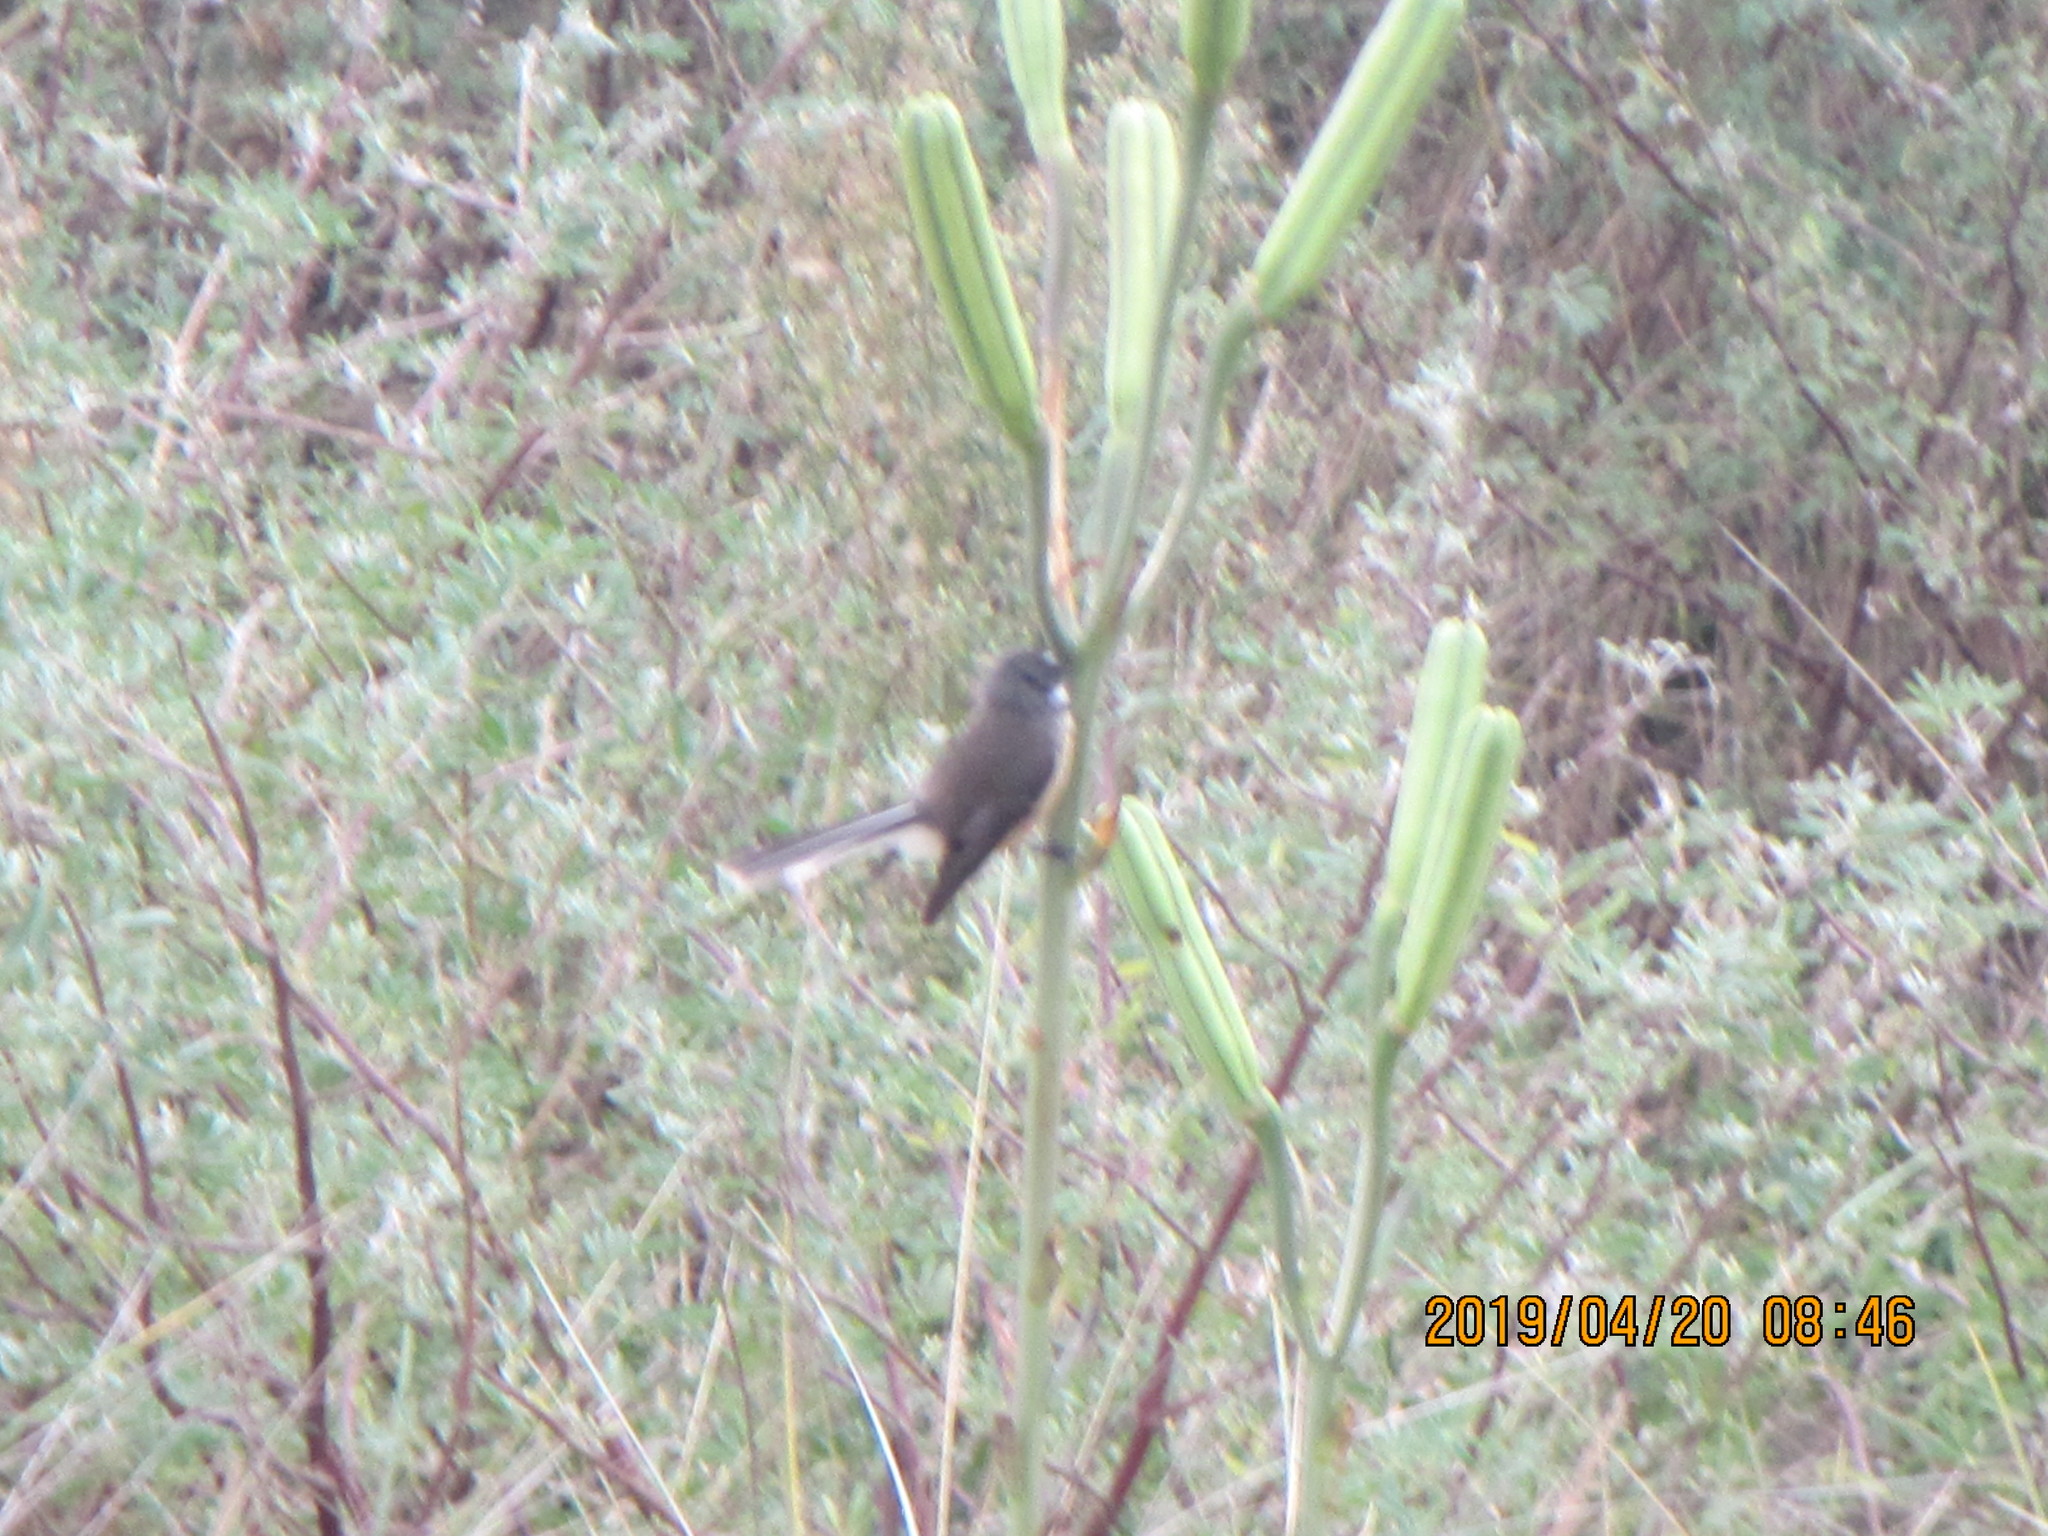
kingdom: Animalia
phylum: Chordata
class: Aves
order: Passeriformes
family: Rhipiduridae
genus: Rhipidura
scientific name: Rhipidura fuliginosa
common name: New zealand fantail
